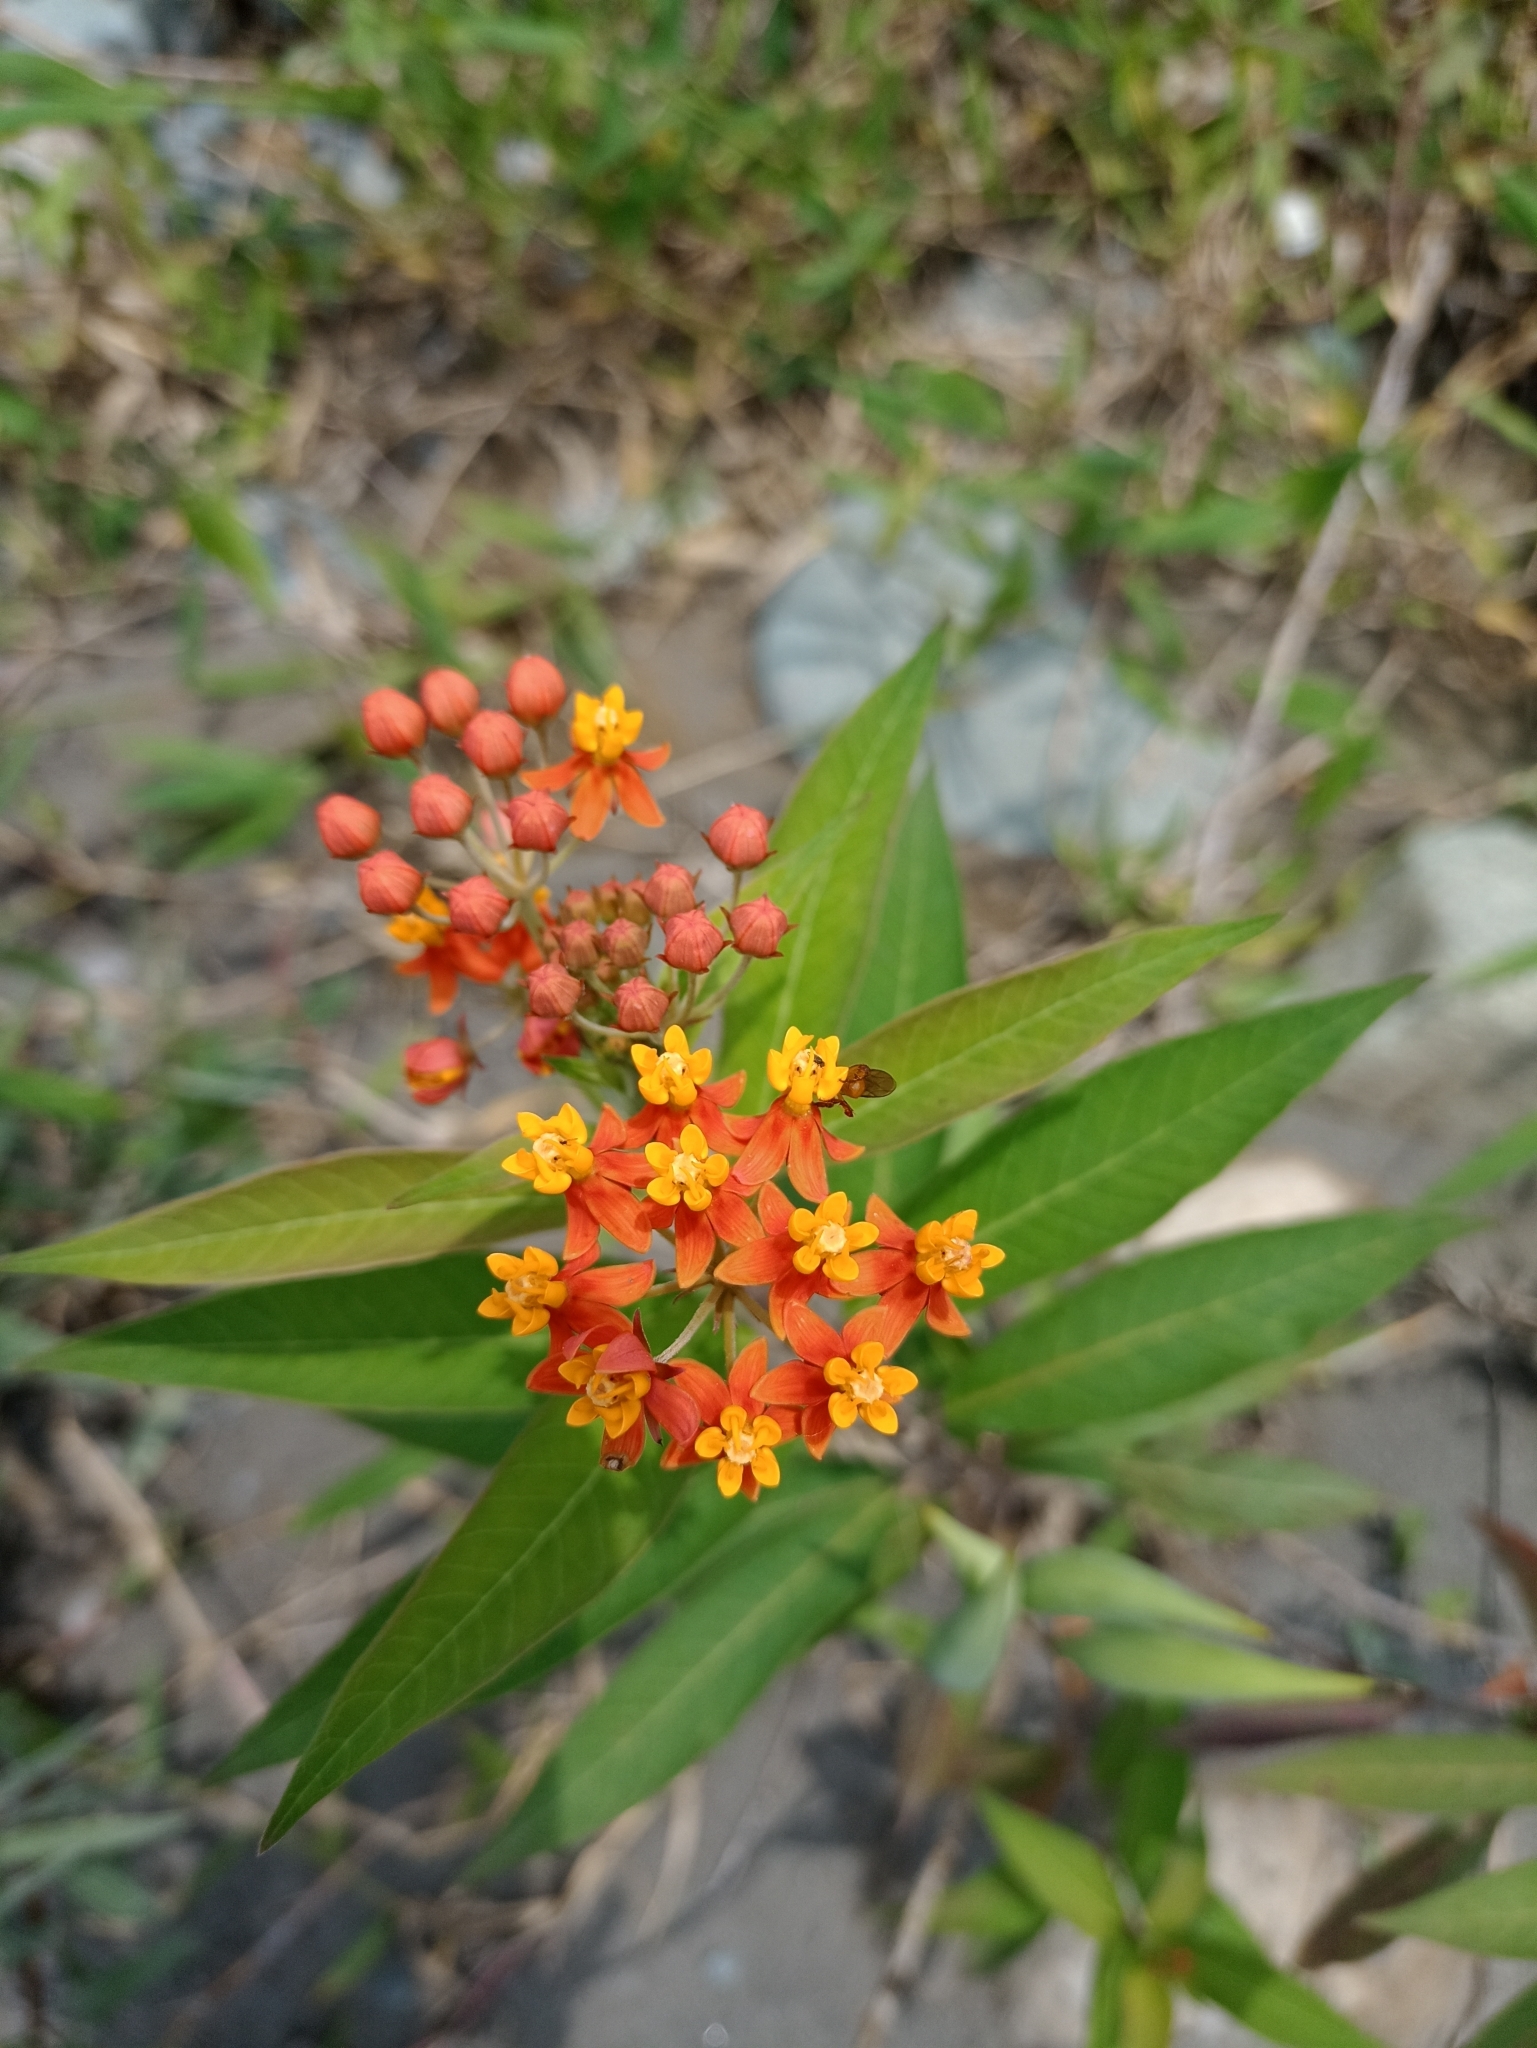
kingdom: Plantae
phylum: Tracheophyta
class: Magnoliopsida
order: Gentianales
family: Apocynaceae
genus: Asclepias
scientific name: Asclepias curassavica
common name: Bloodflower
